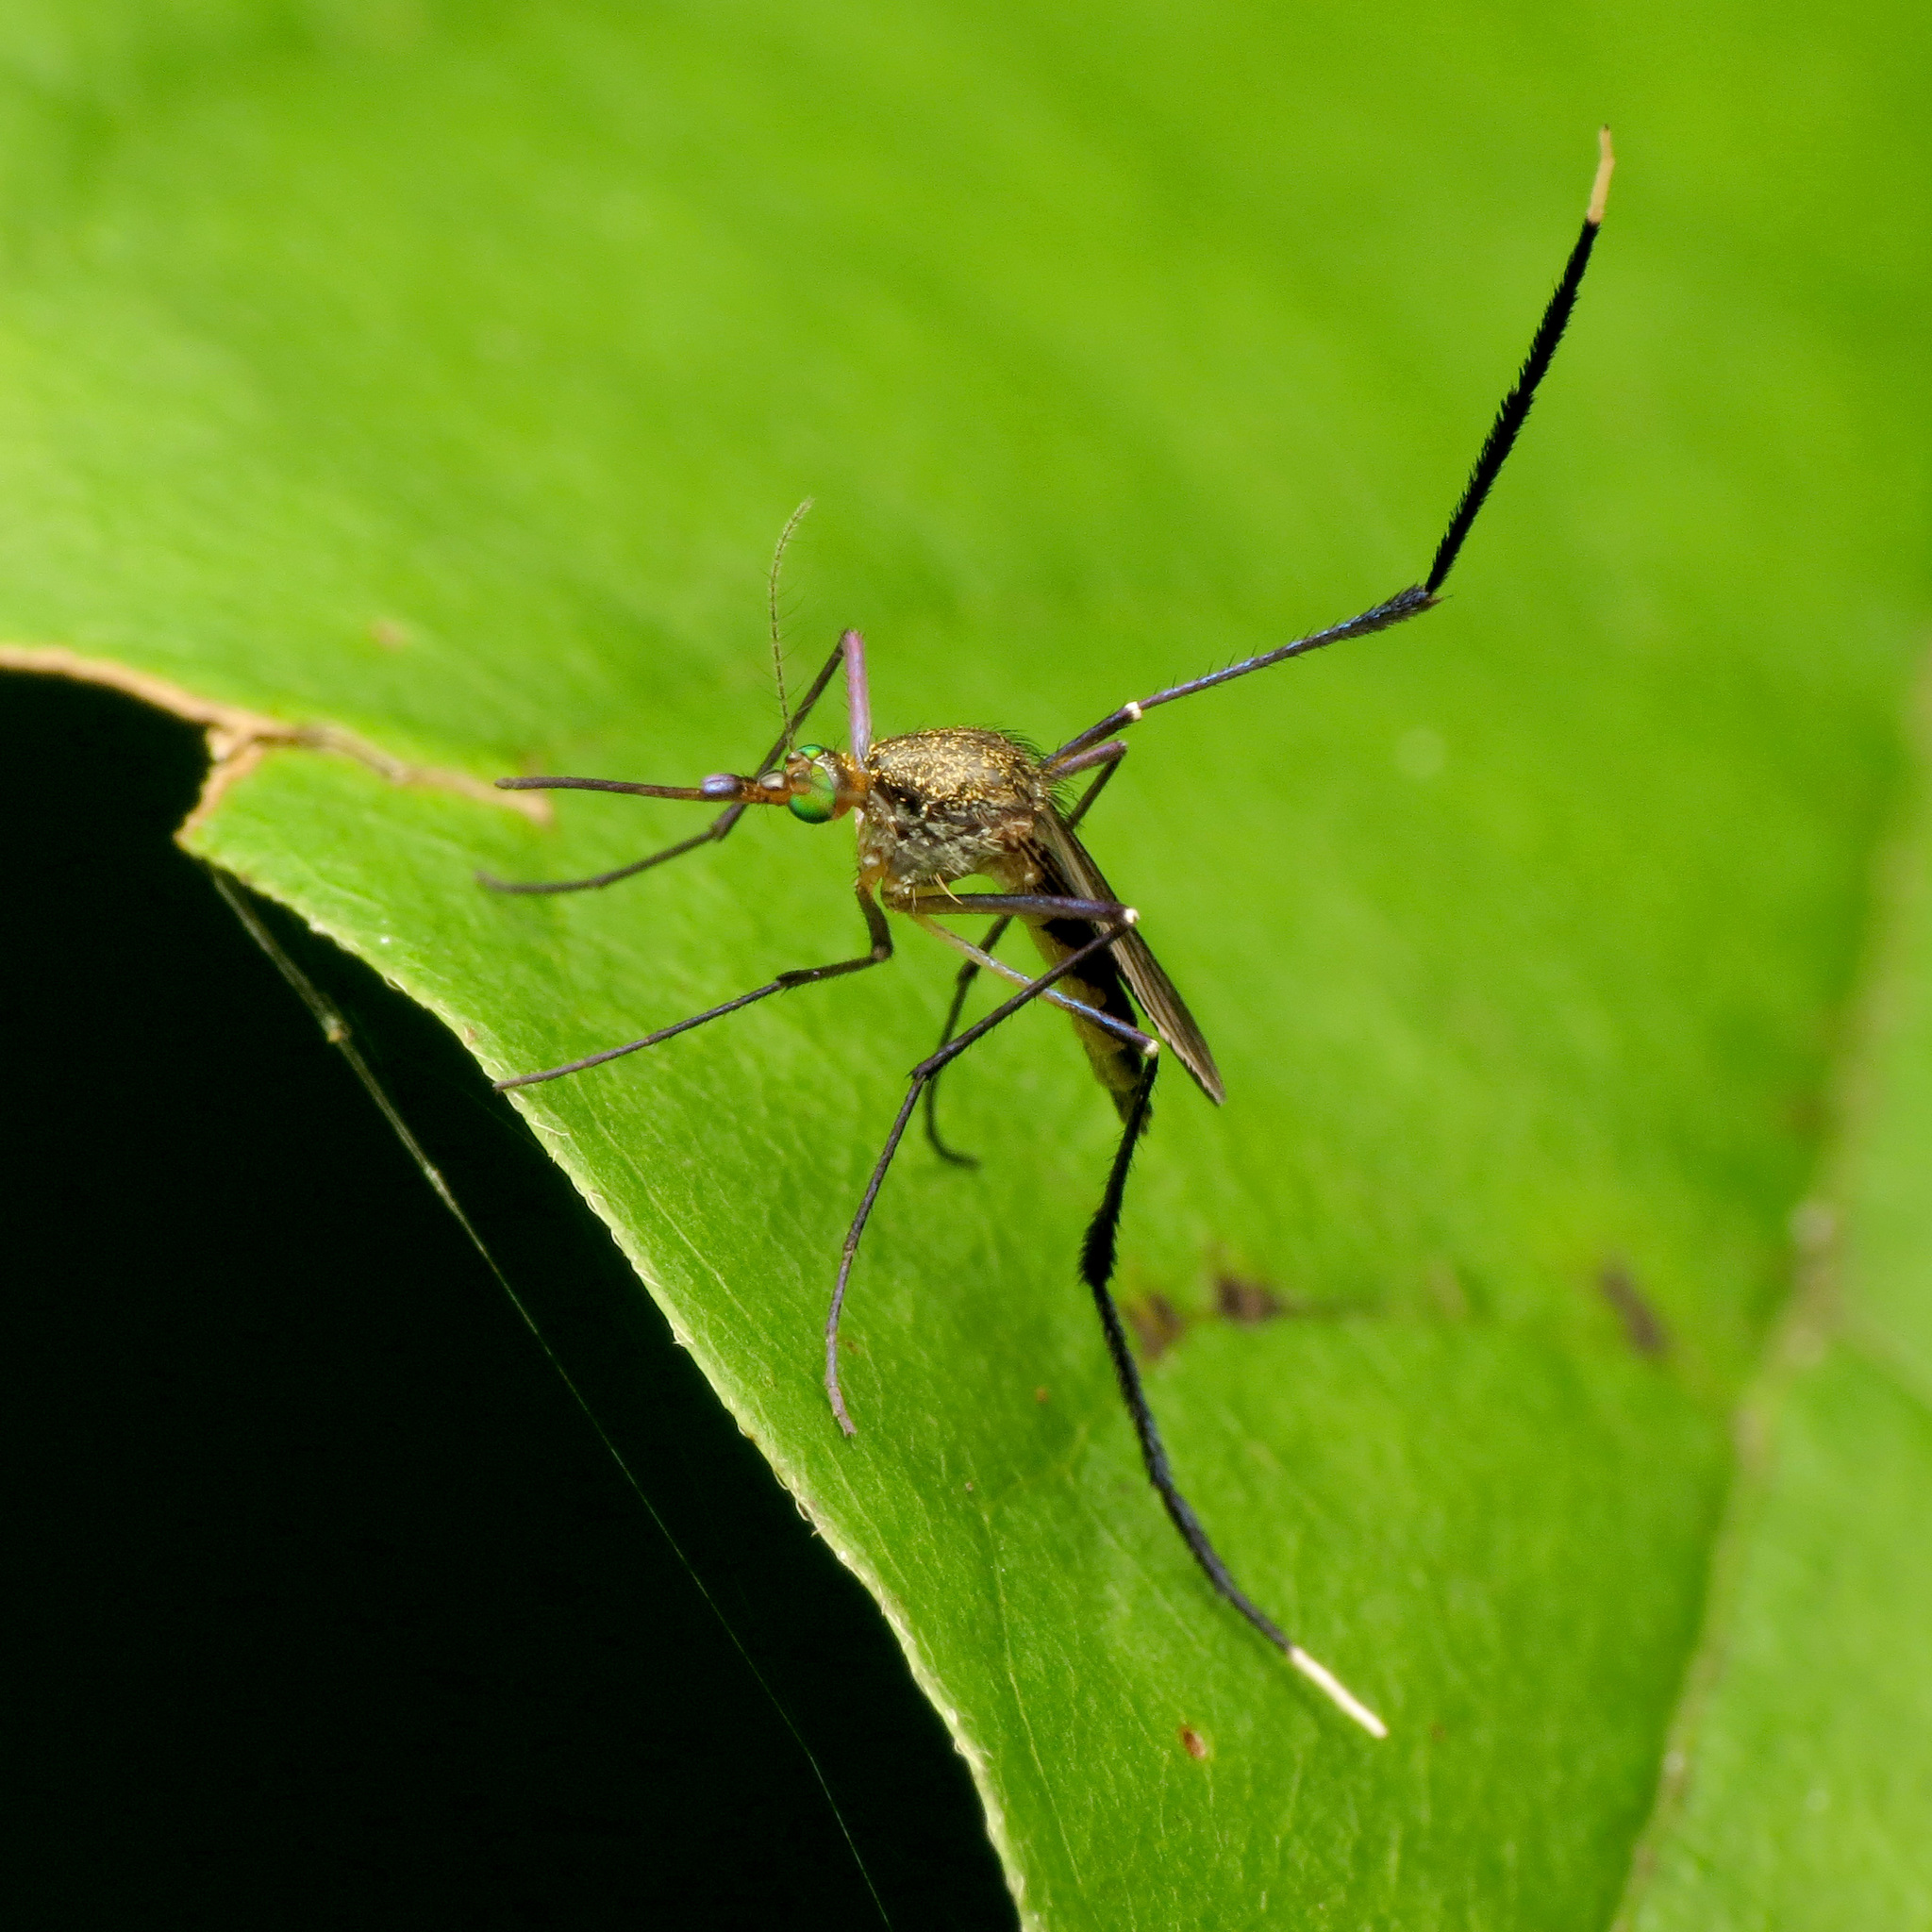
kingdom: Animalia
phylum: Arthropoda
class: Insecta
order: Diptera
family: Culicidae
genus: Psorophora
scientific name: Psorophora ferox
